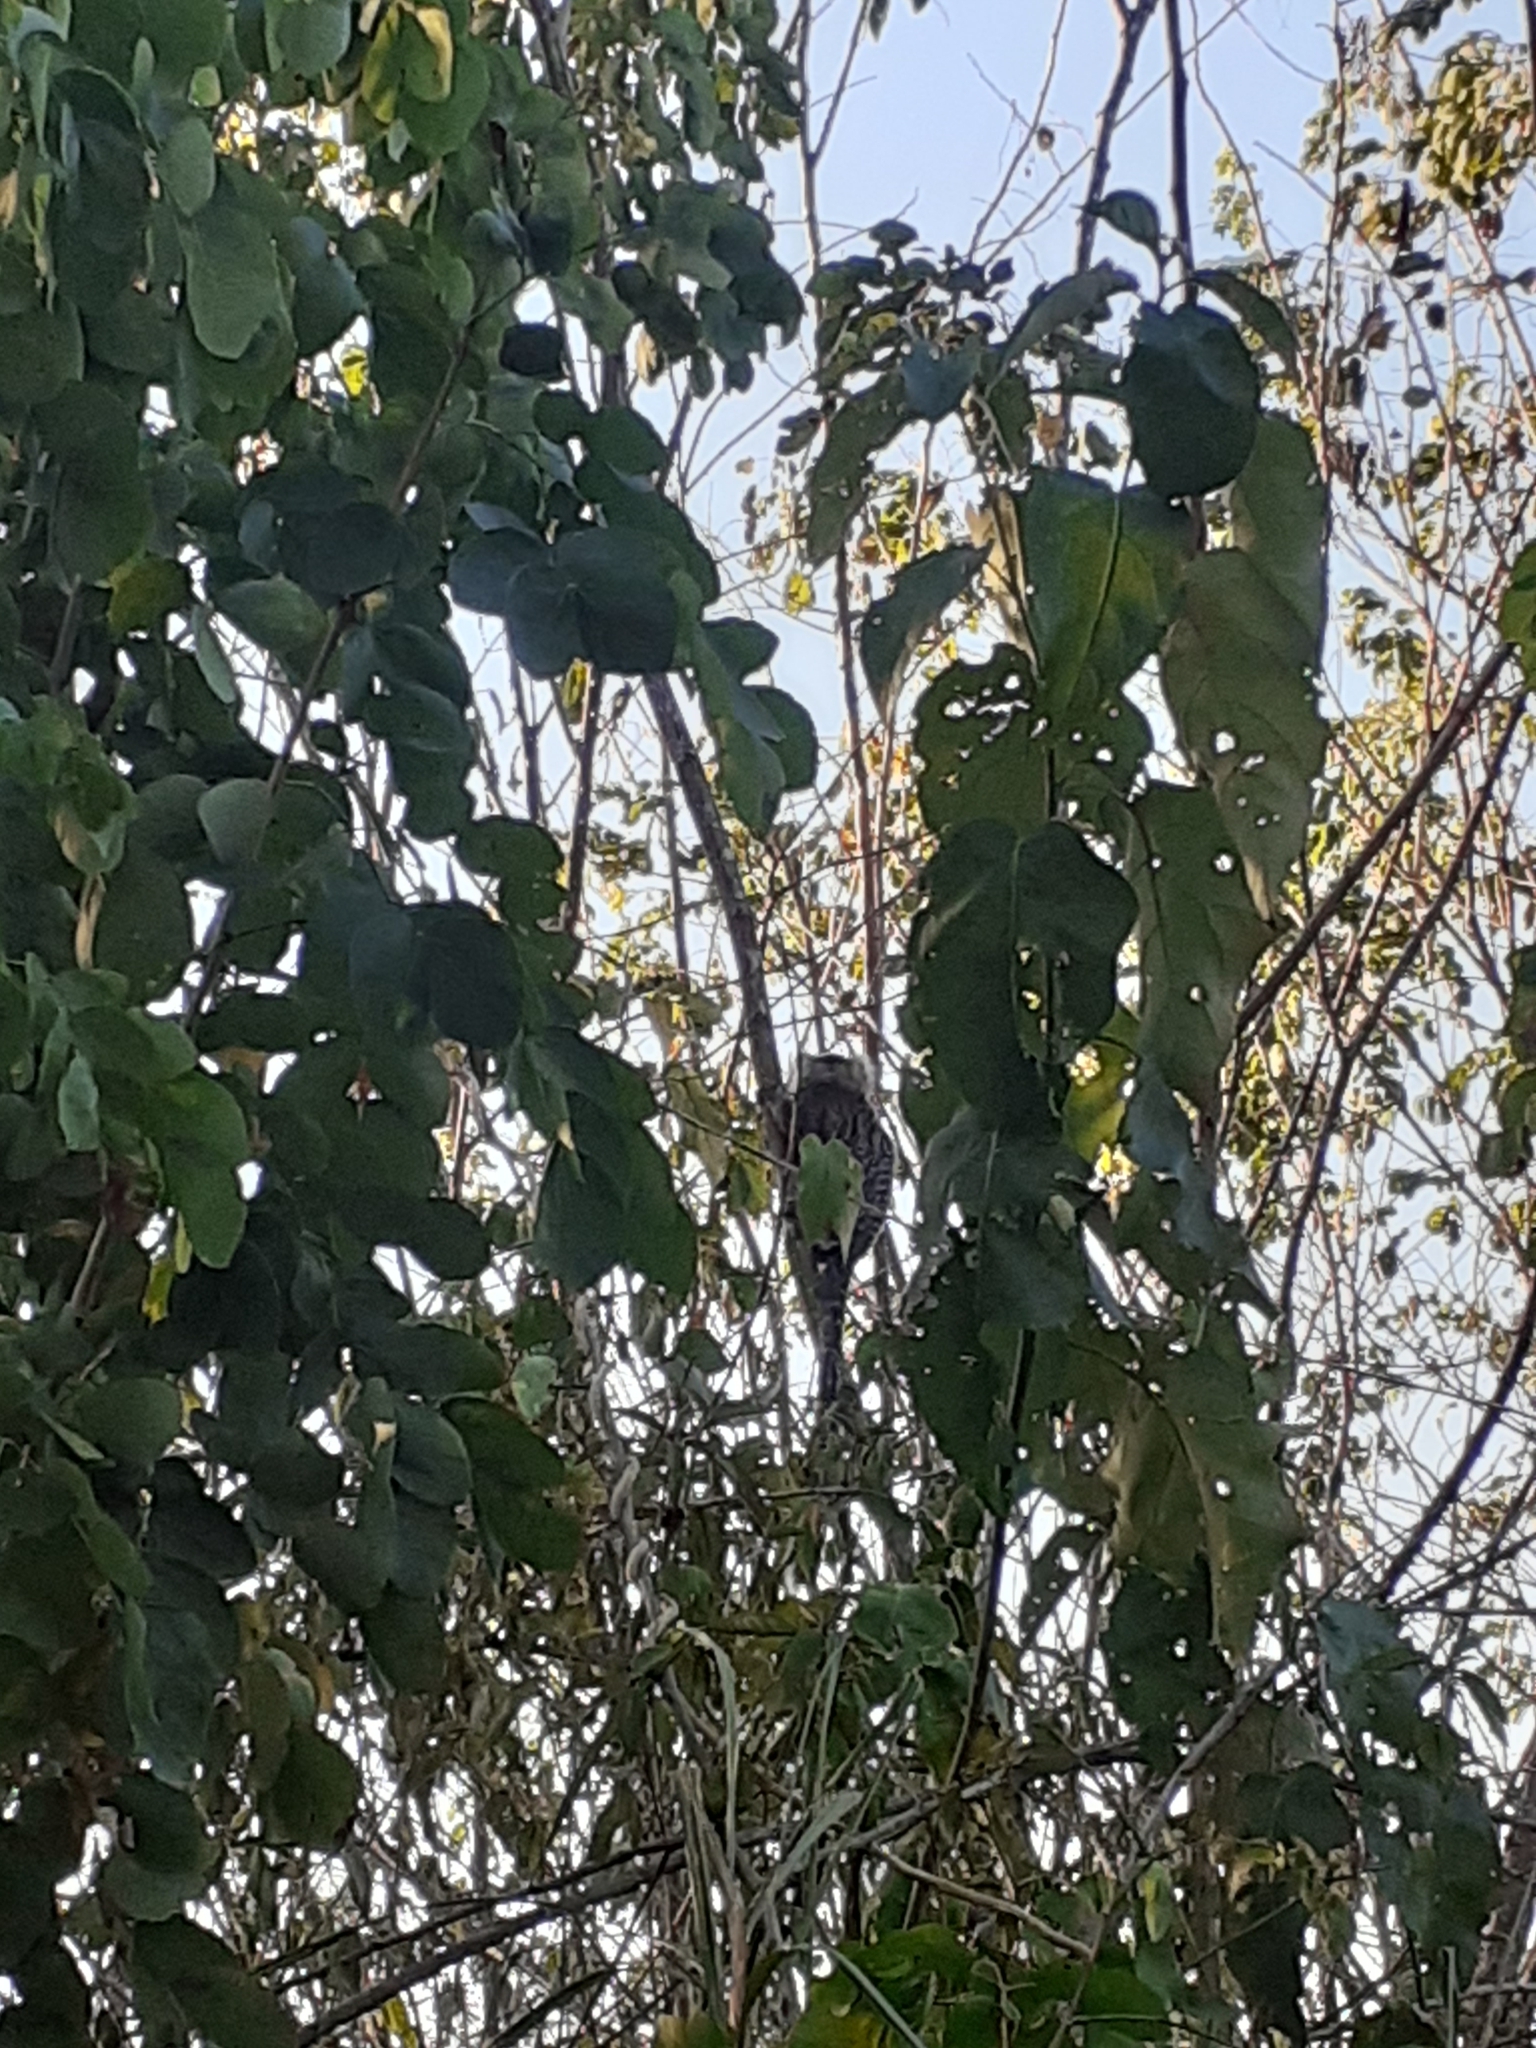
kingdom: Animalia
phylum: Chordata
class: Mammalia
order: Primates
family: Callitrichidae
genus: Callithrix
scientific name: Callithrix jacchus
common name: Common marmoset
